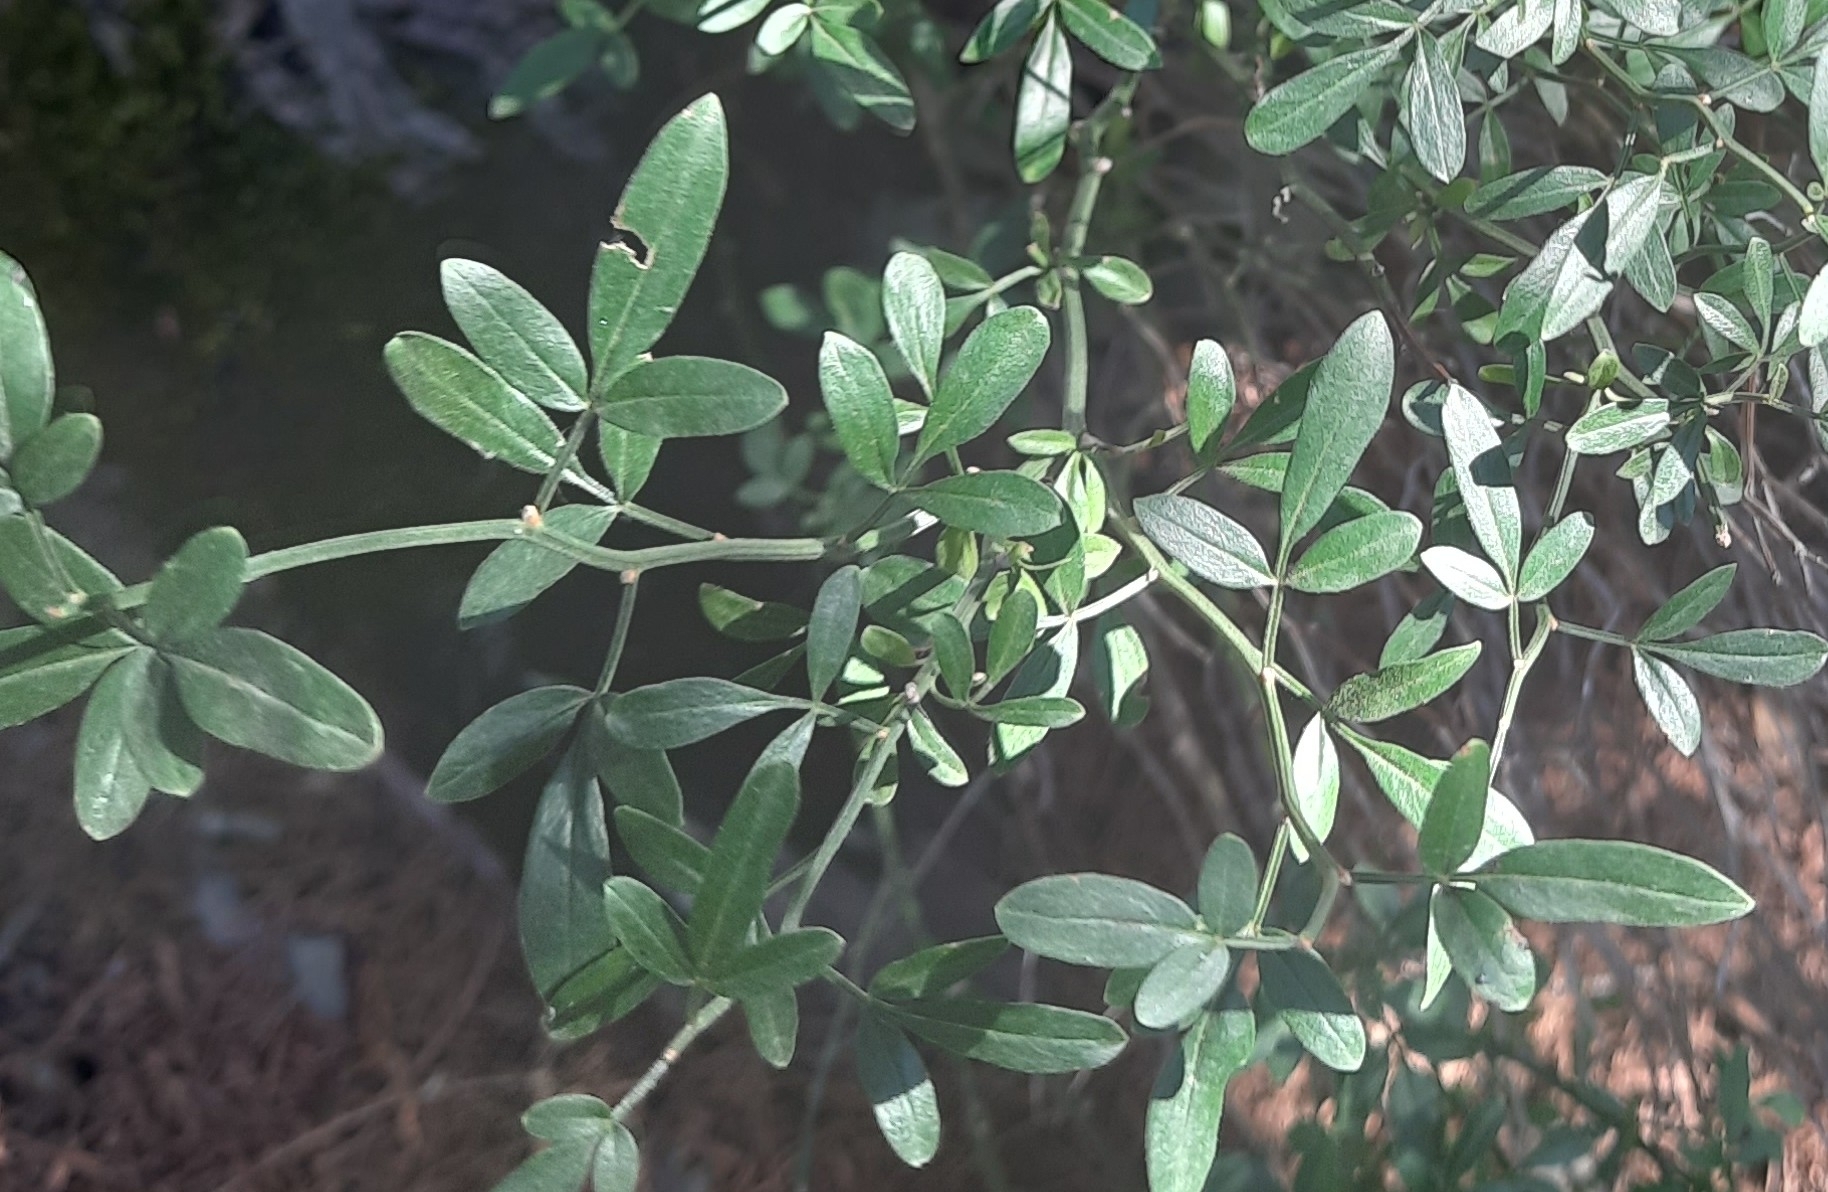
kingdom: Plantae
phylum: Tracheophyta
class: Magnoliopsida
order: Lamiales
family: Oleaceae
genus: Chrysojasminum
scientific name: Chrysojasminum fruticans
